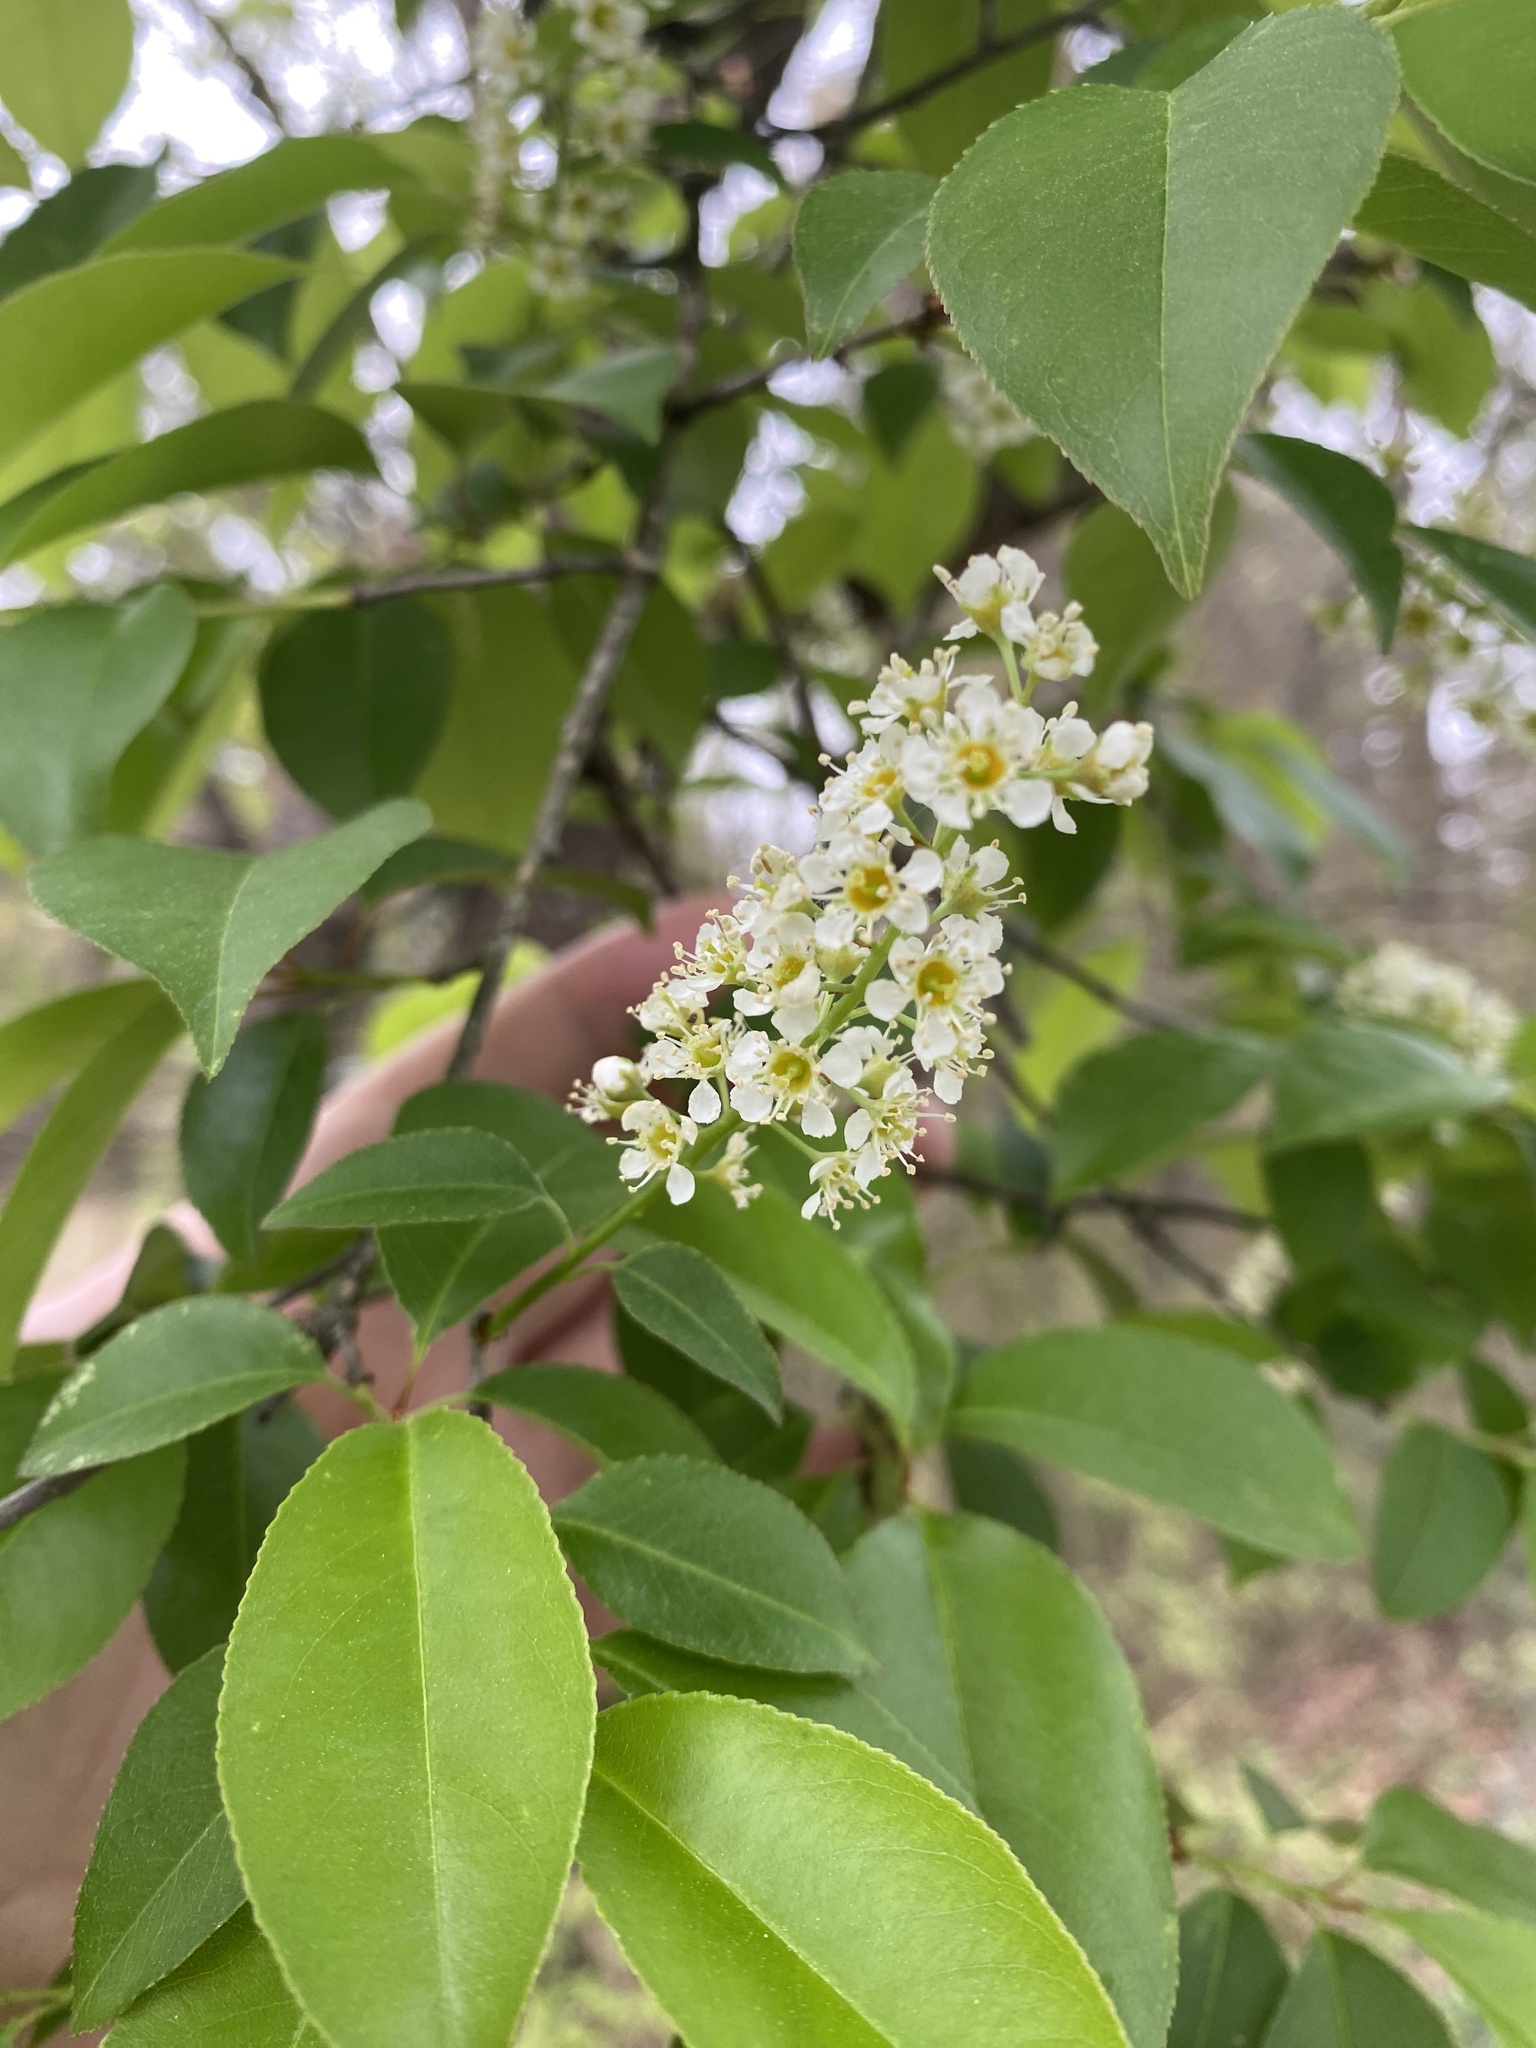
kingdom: Plantae
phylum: Tracheophyta
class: Magnoliopsida
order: Rosales
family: Rosaceae
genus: Prunus
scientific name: Prunus serotina
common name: Black cherry
